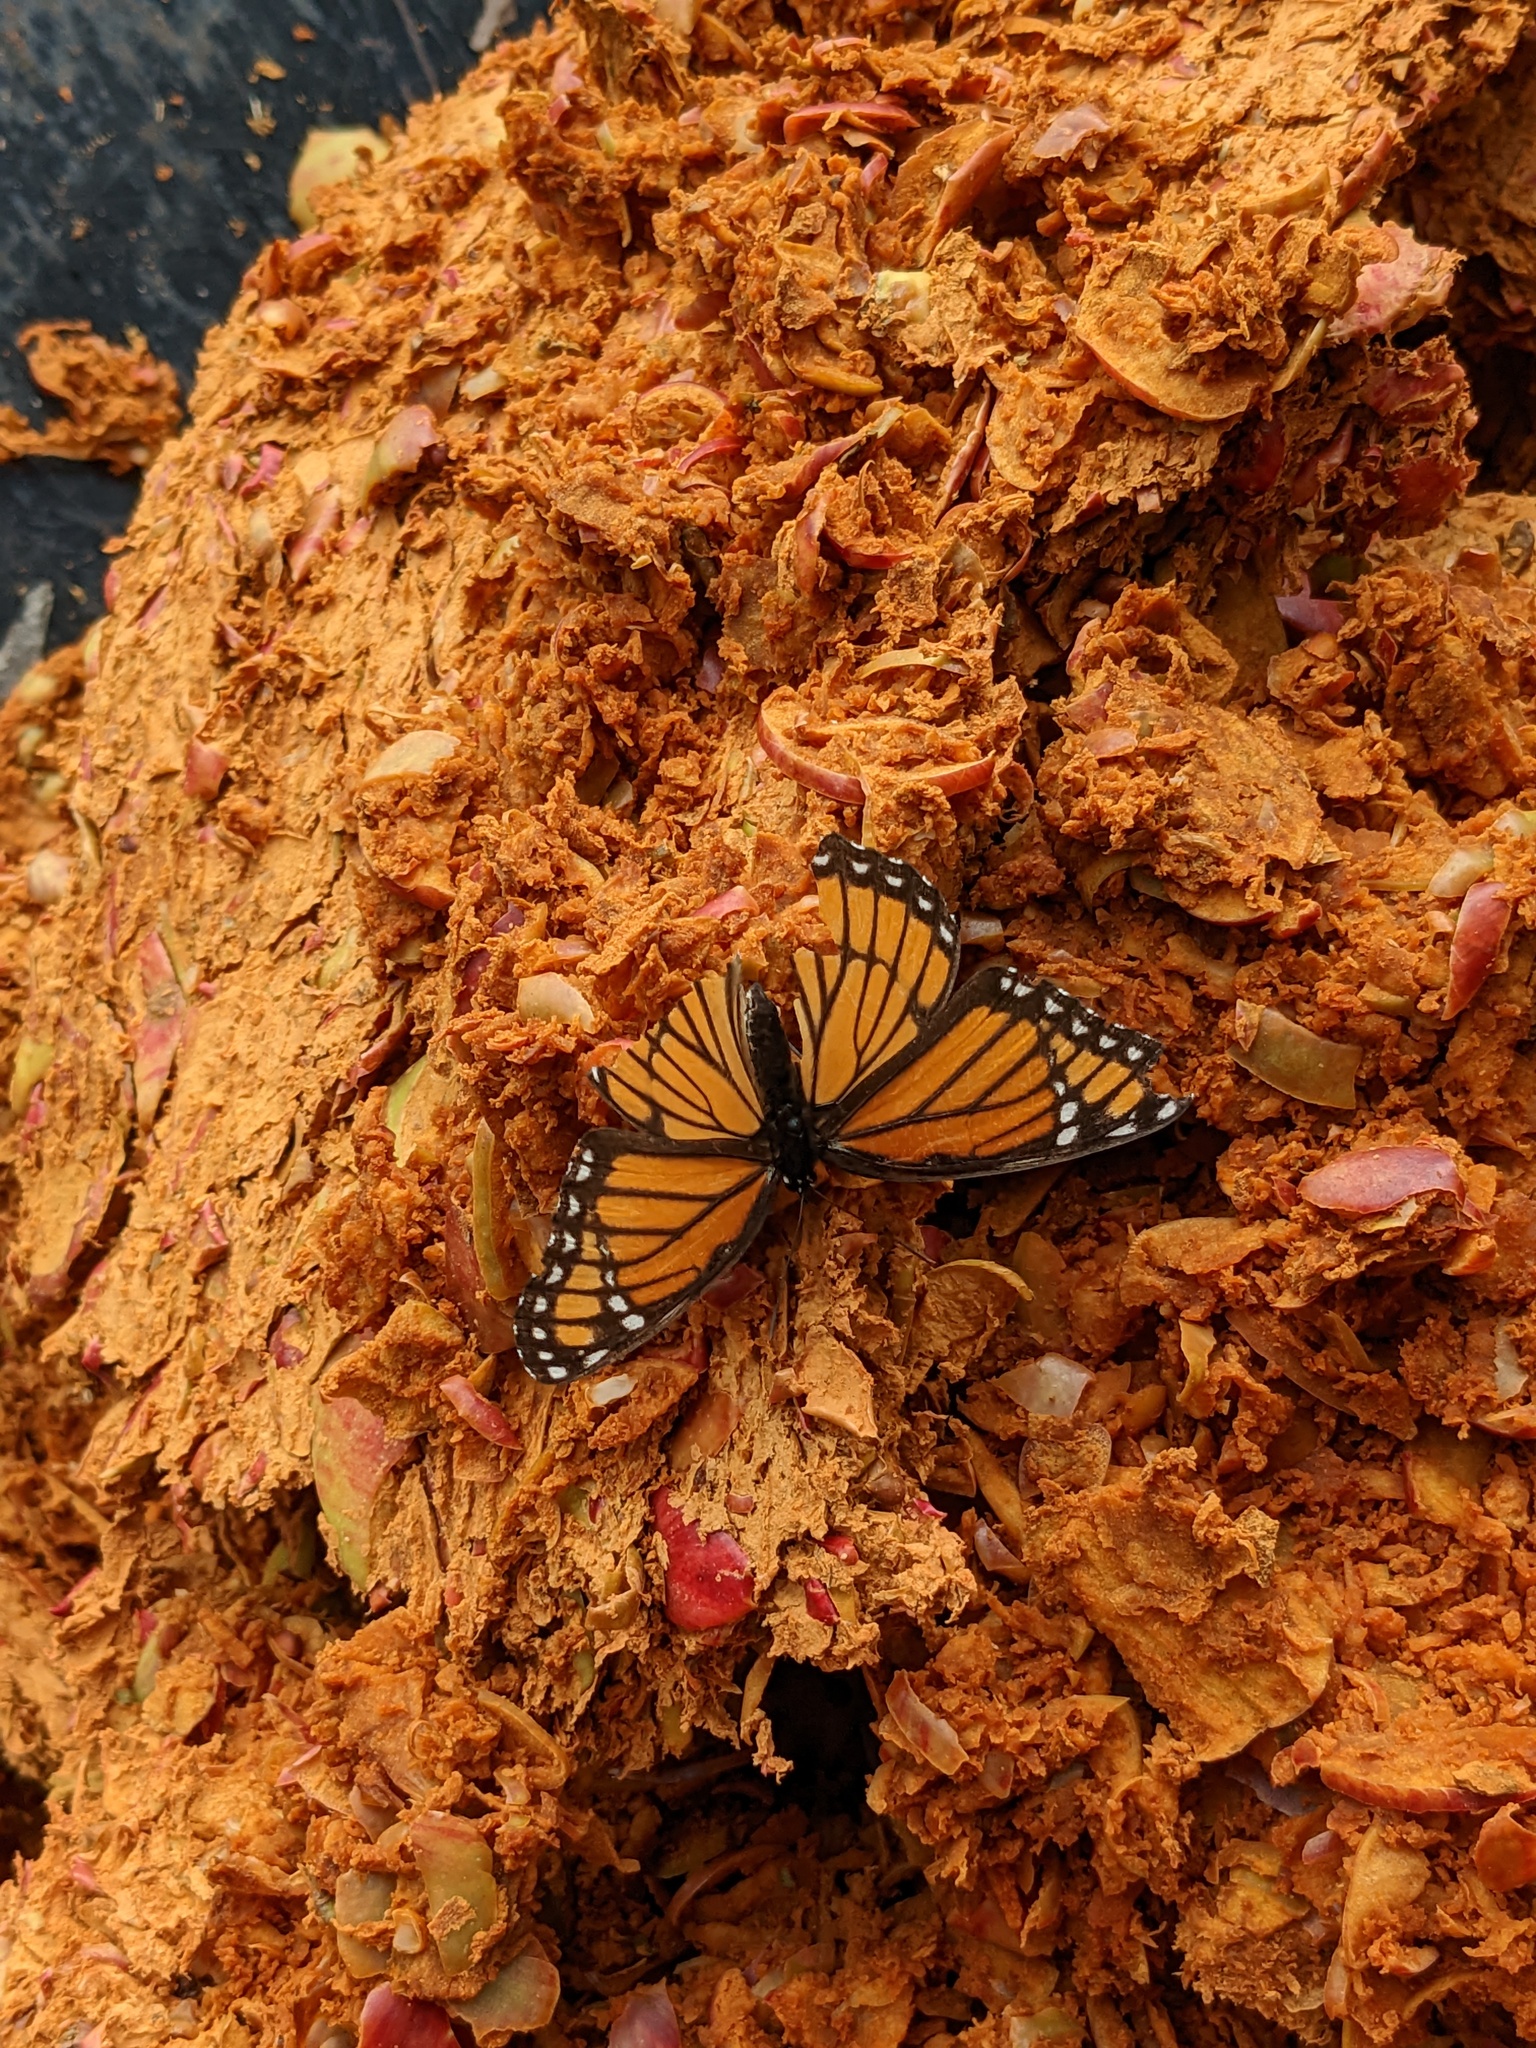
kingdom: Animalia
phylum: Arthropoda
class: Insecta
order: Lepidoptera
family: Nymphalidae
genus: Limenitis
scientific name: Limenitis archippus
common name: Viceroy
